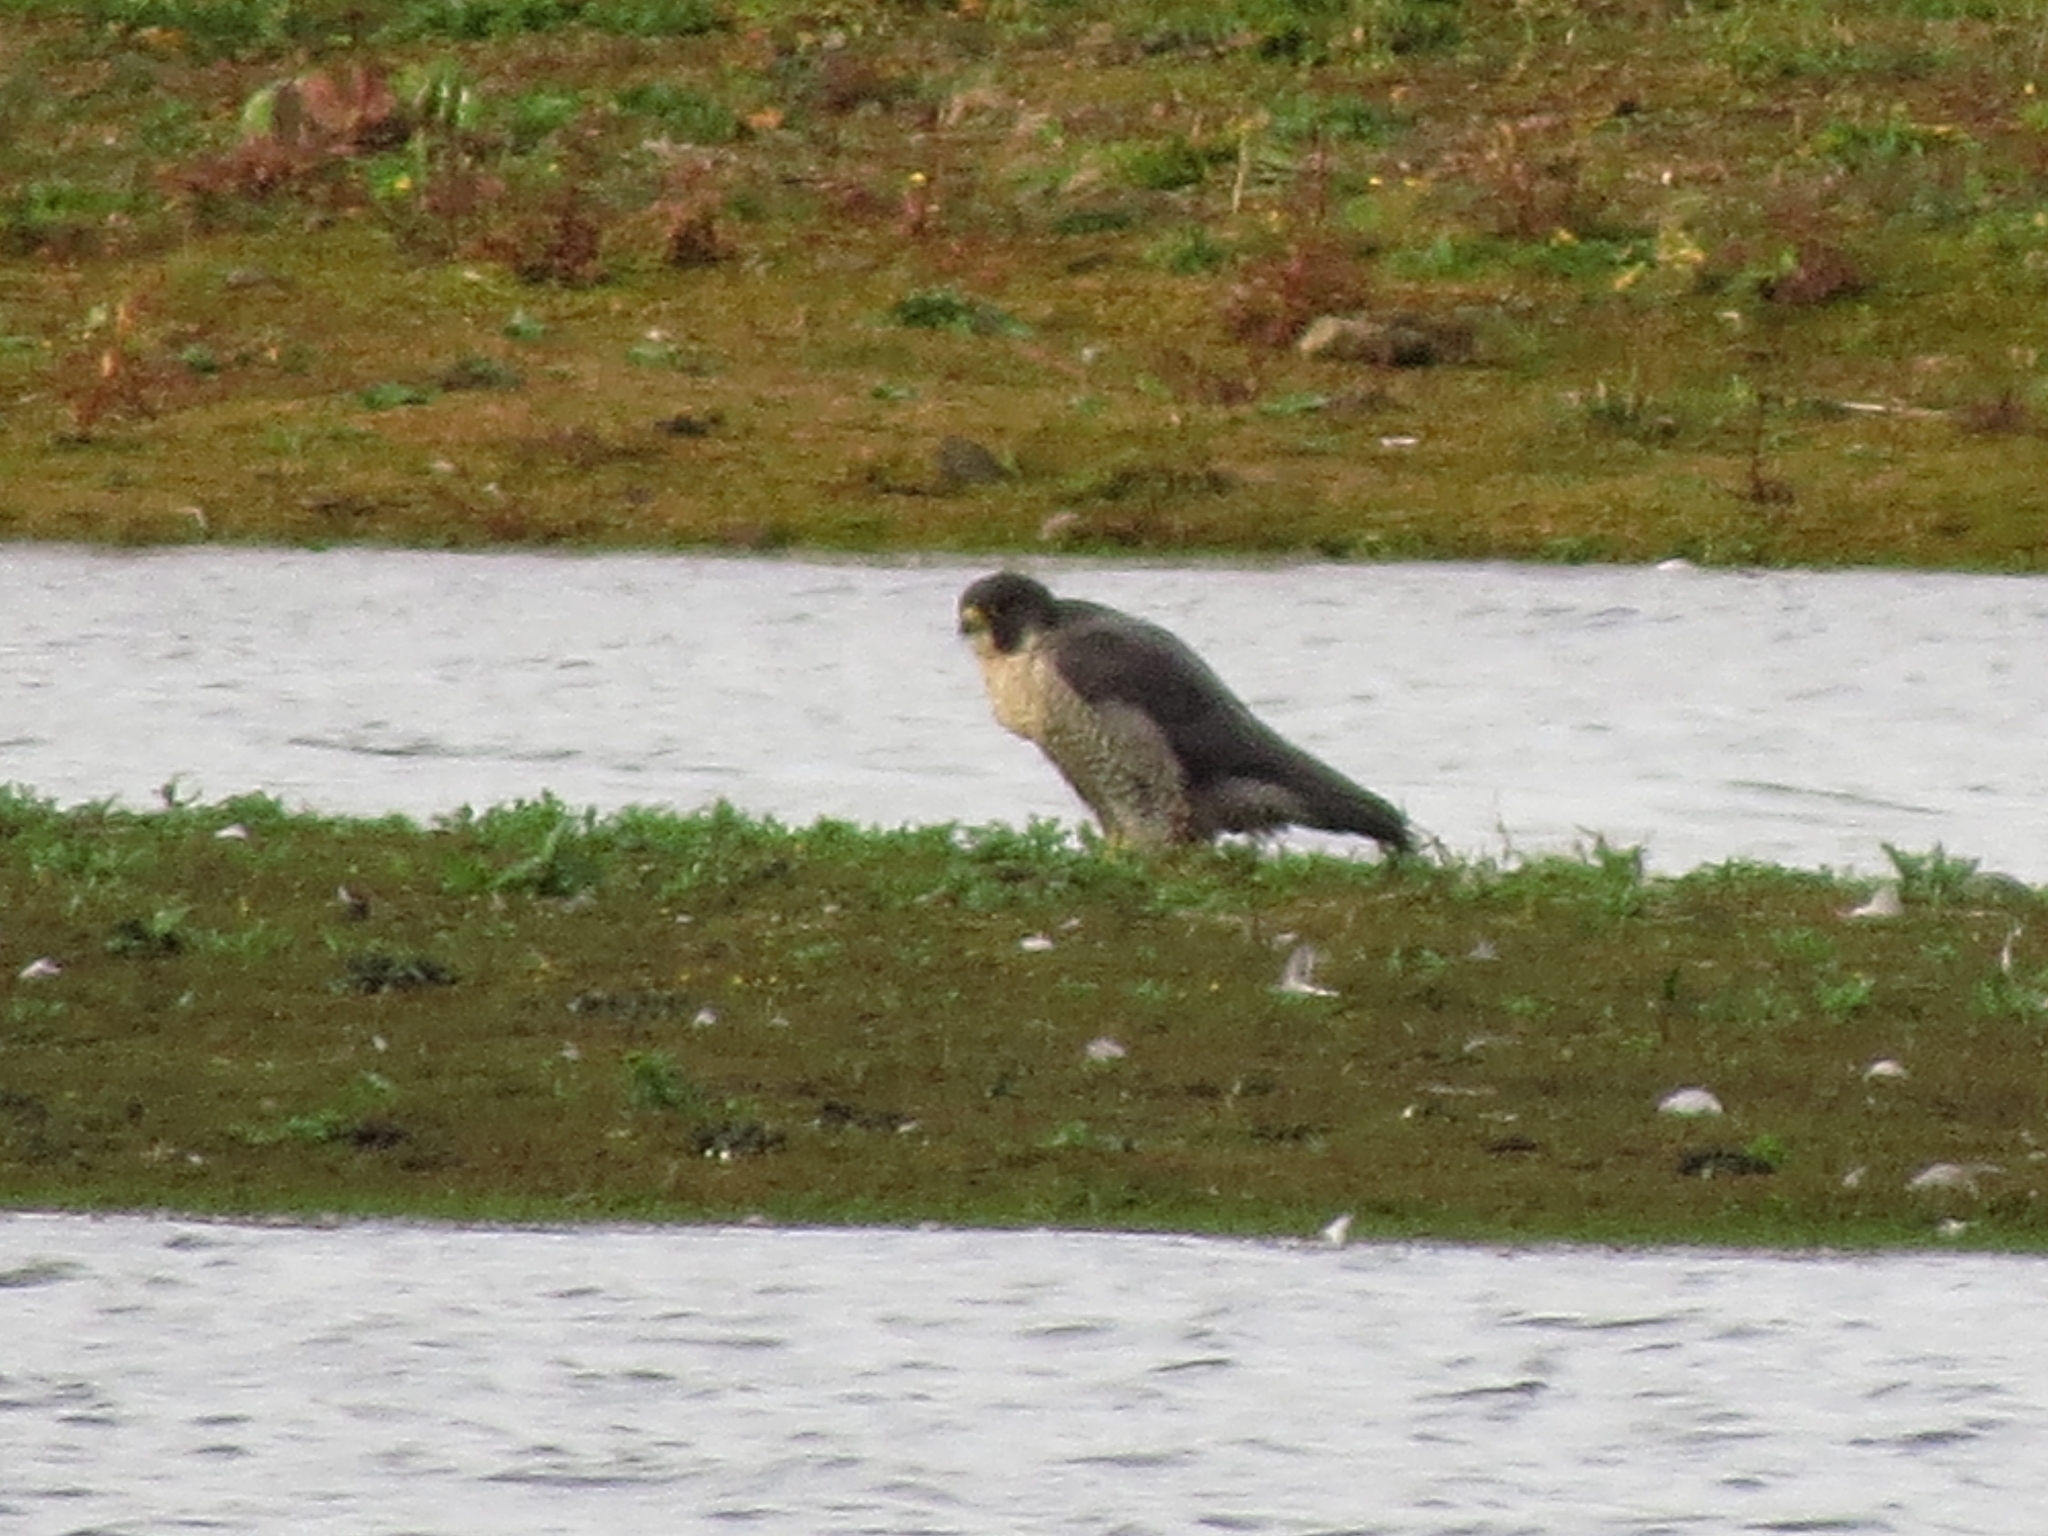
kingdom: Animalia
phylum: Chordata
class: Aves
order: Falconiformes
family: Falconidae
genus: Falco
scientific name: Falco peregrinus
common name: Peregrine falcon
